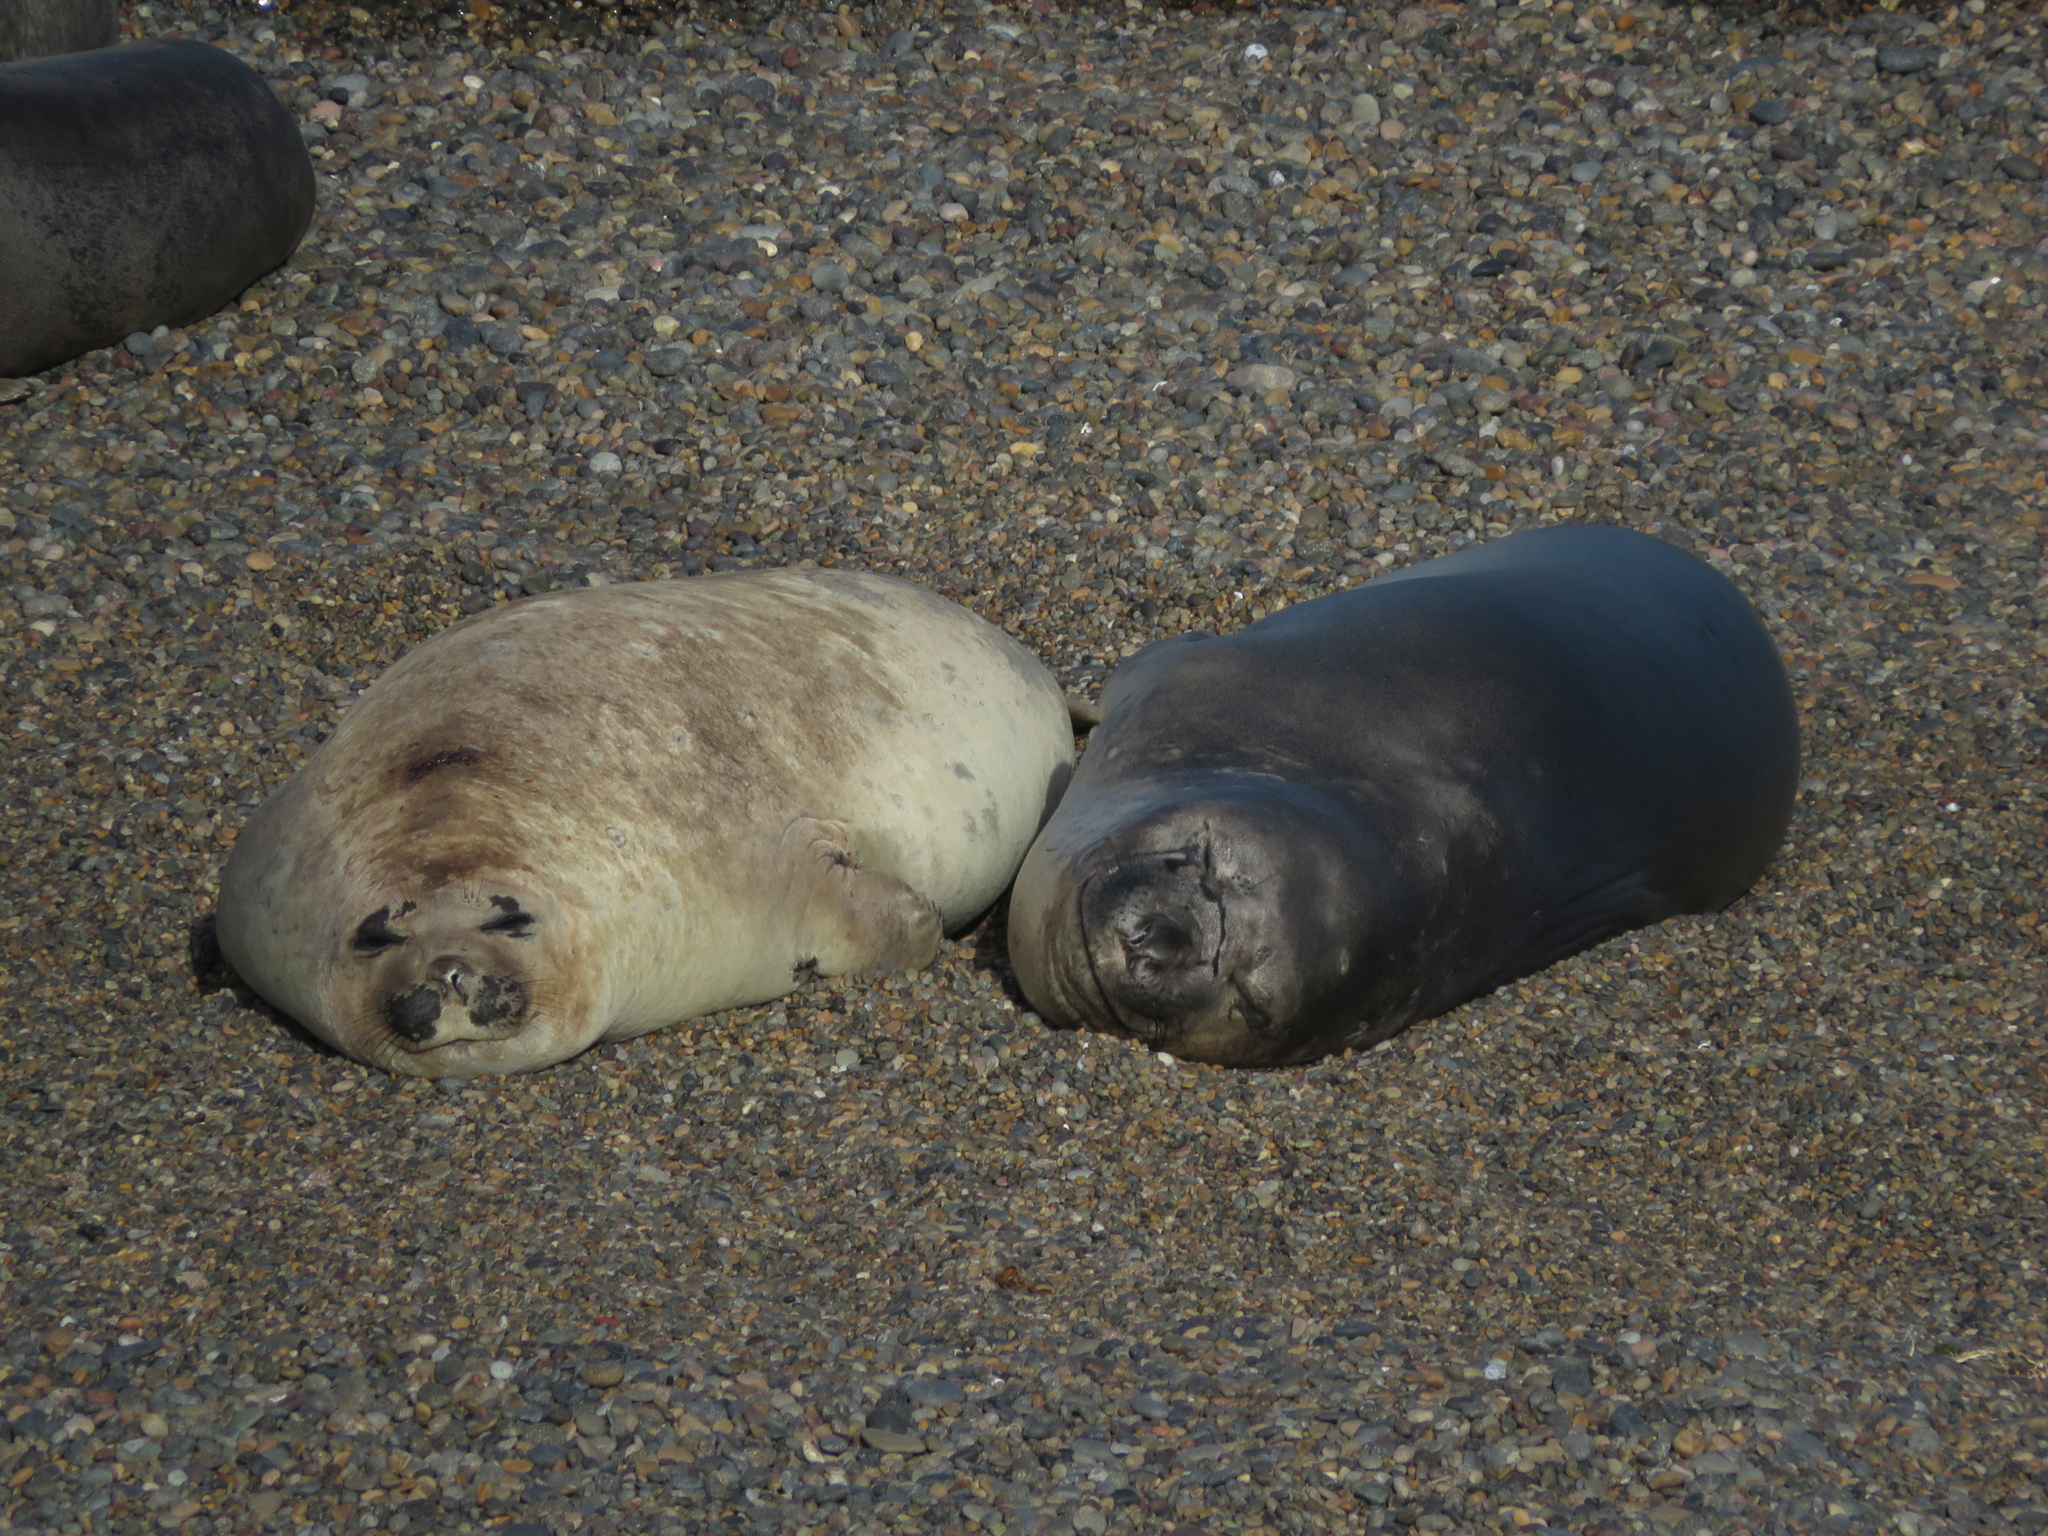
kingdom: Animalia
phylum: Chordata
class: Mammalia
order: Carnivora
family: Phocidae
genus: Mirounga
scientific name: Mirounga leonina
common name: Southern elephant seal
